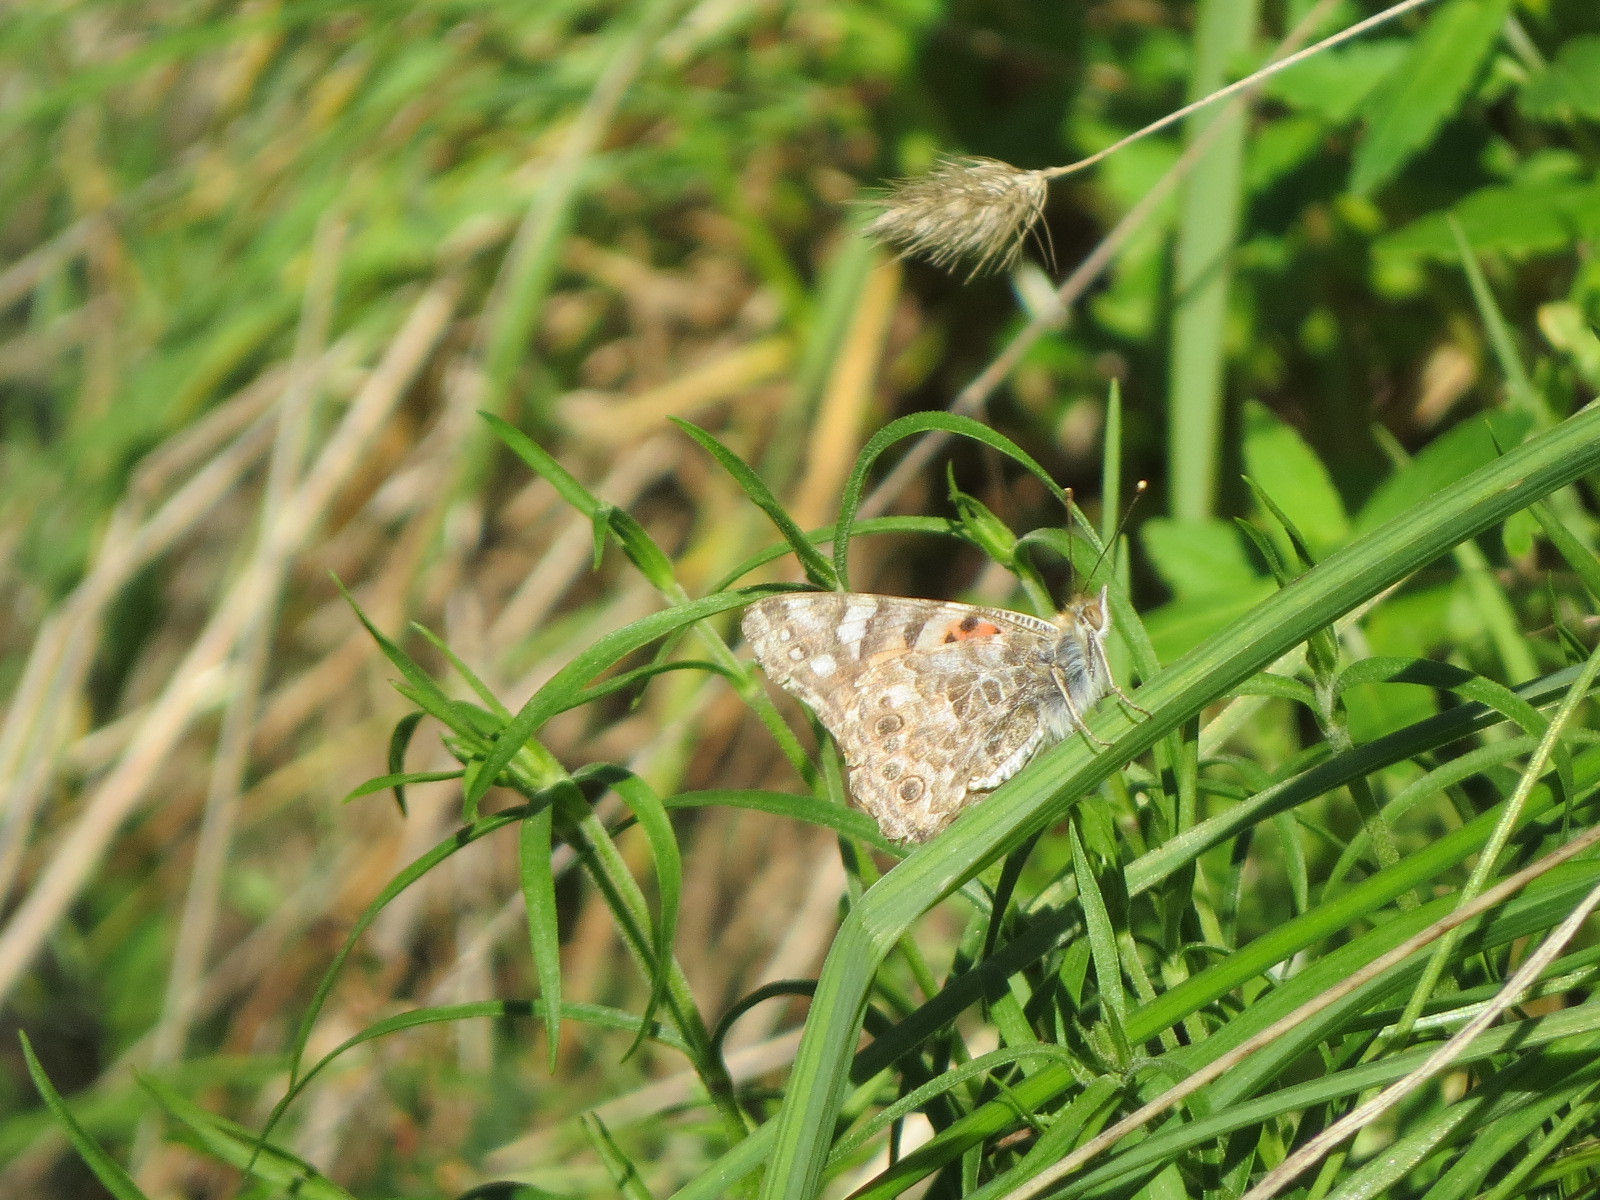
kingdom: Animalia
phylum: Arthropoda
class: Insecta
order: Lepidoptera
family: Nymphalidae
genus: Vanessa
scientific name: Vanessa cardui
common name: Painted lady
